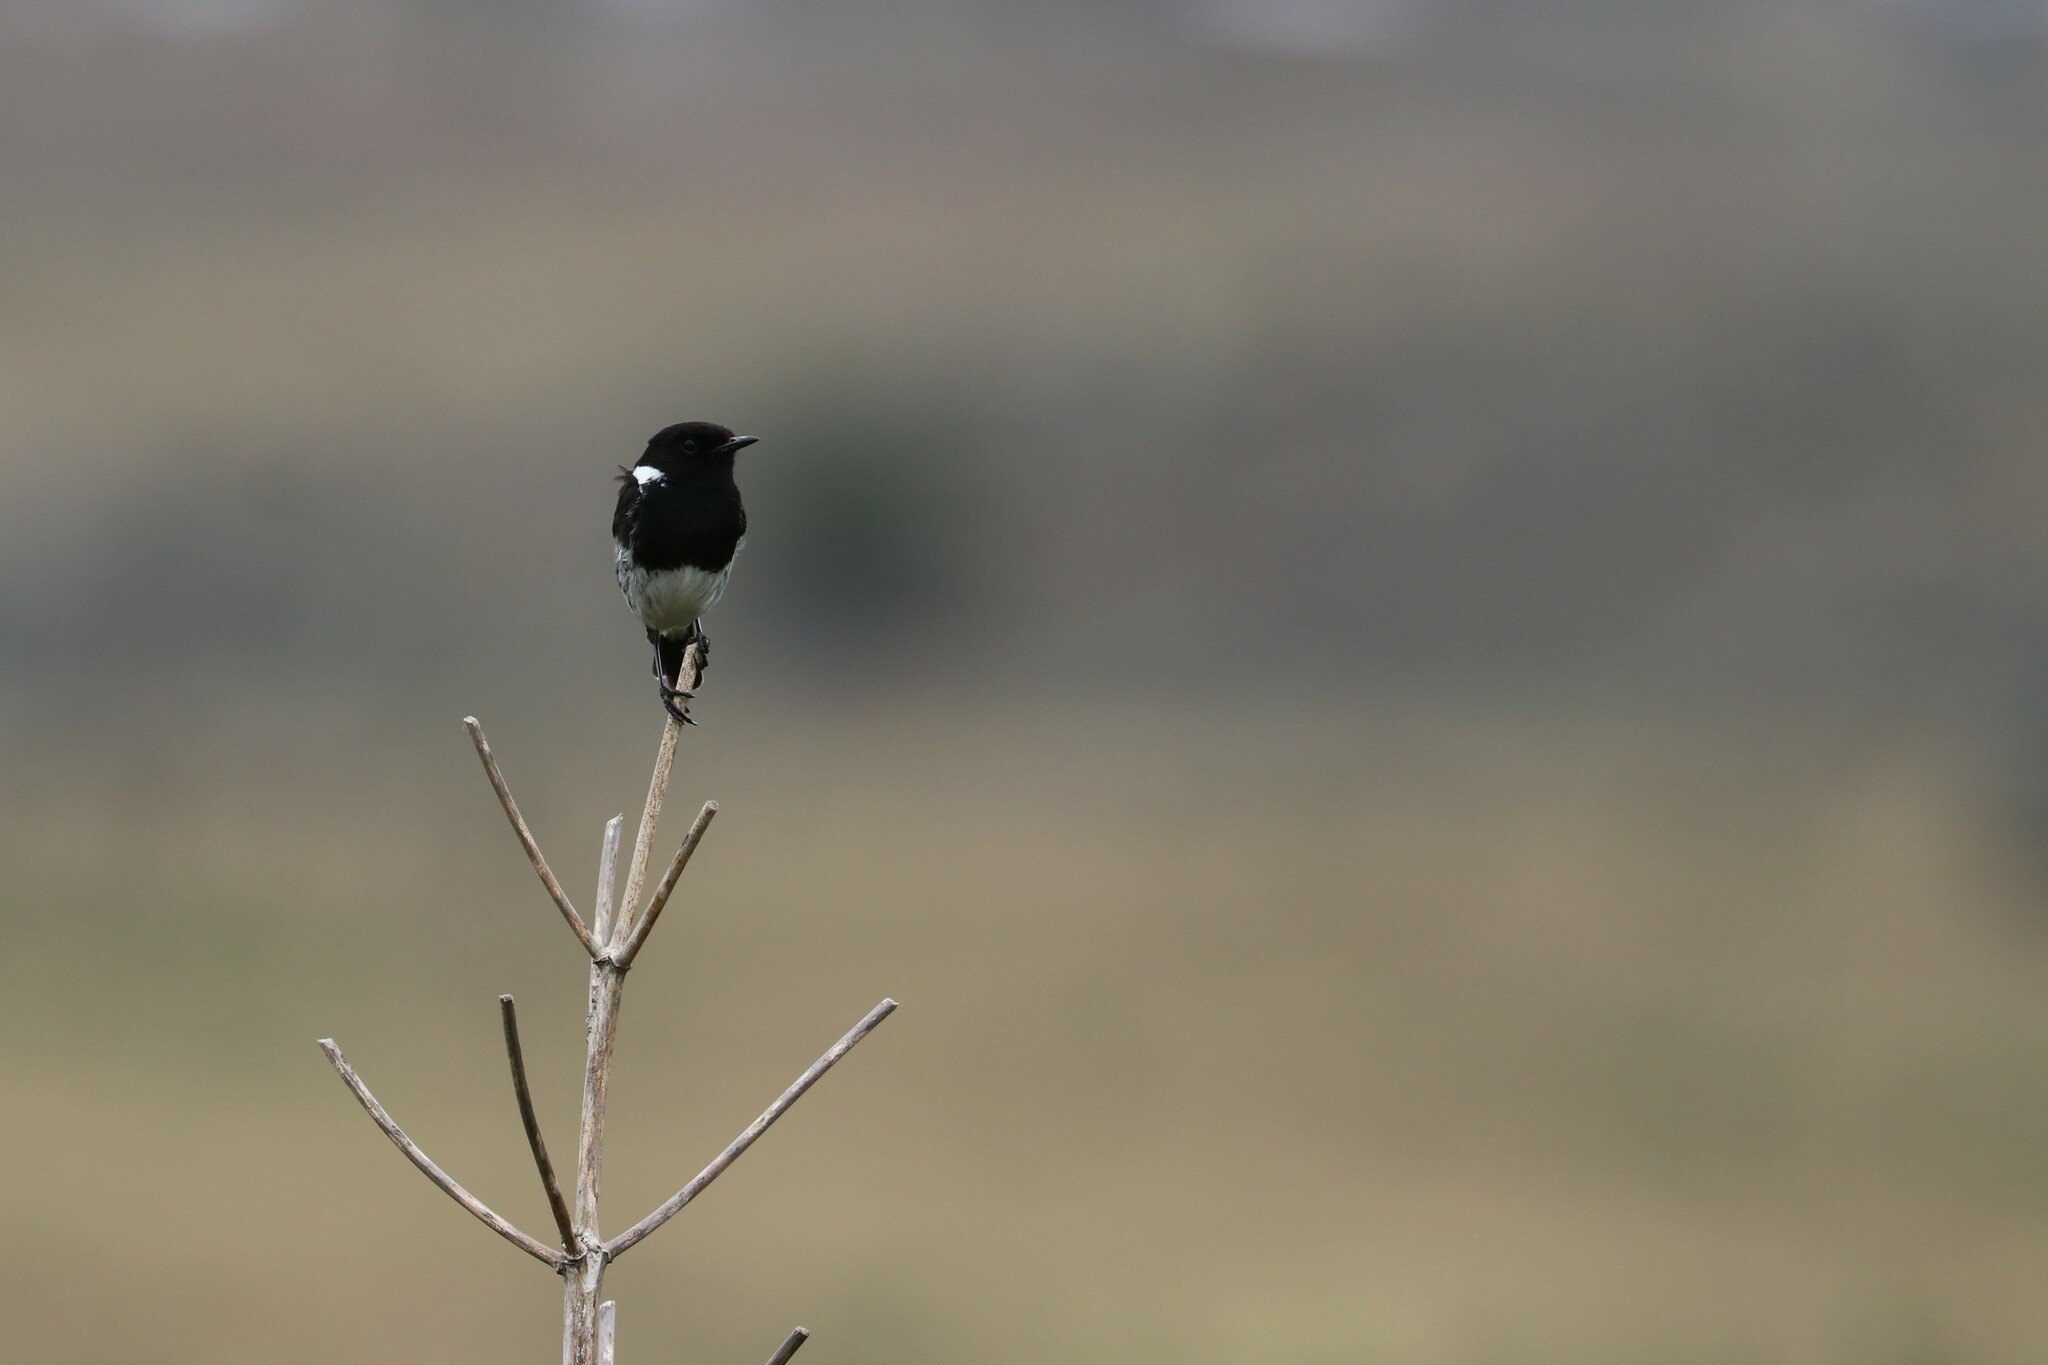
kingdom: Animalia
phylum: Chordata
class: Aves
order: Passeriformes
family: Muscicapidae
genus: Saxicola
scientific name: Saxicola torquatus
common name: African stonechat
